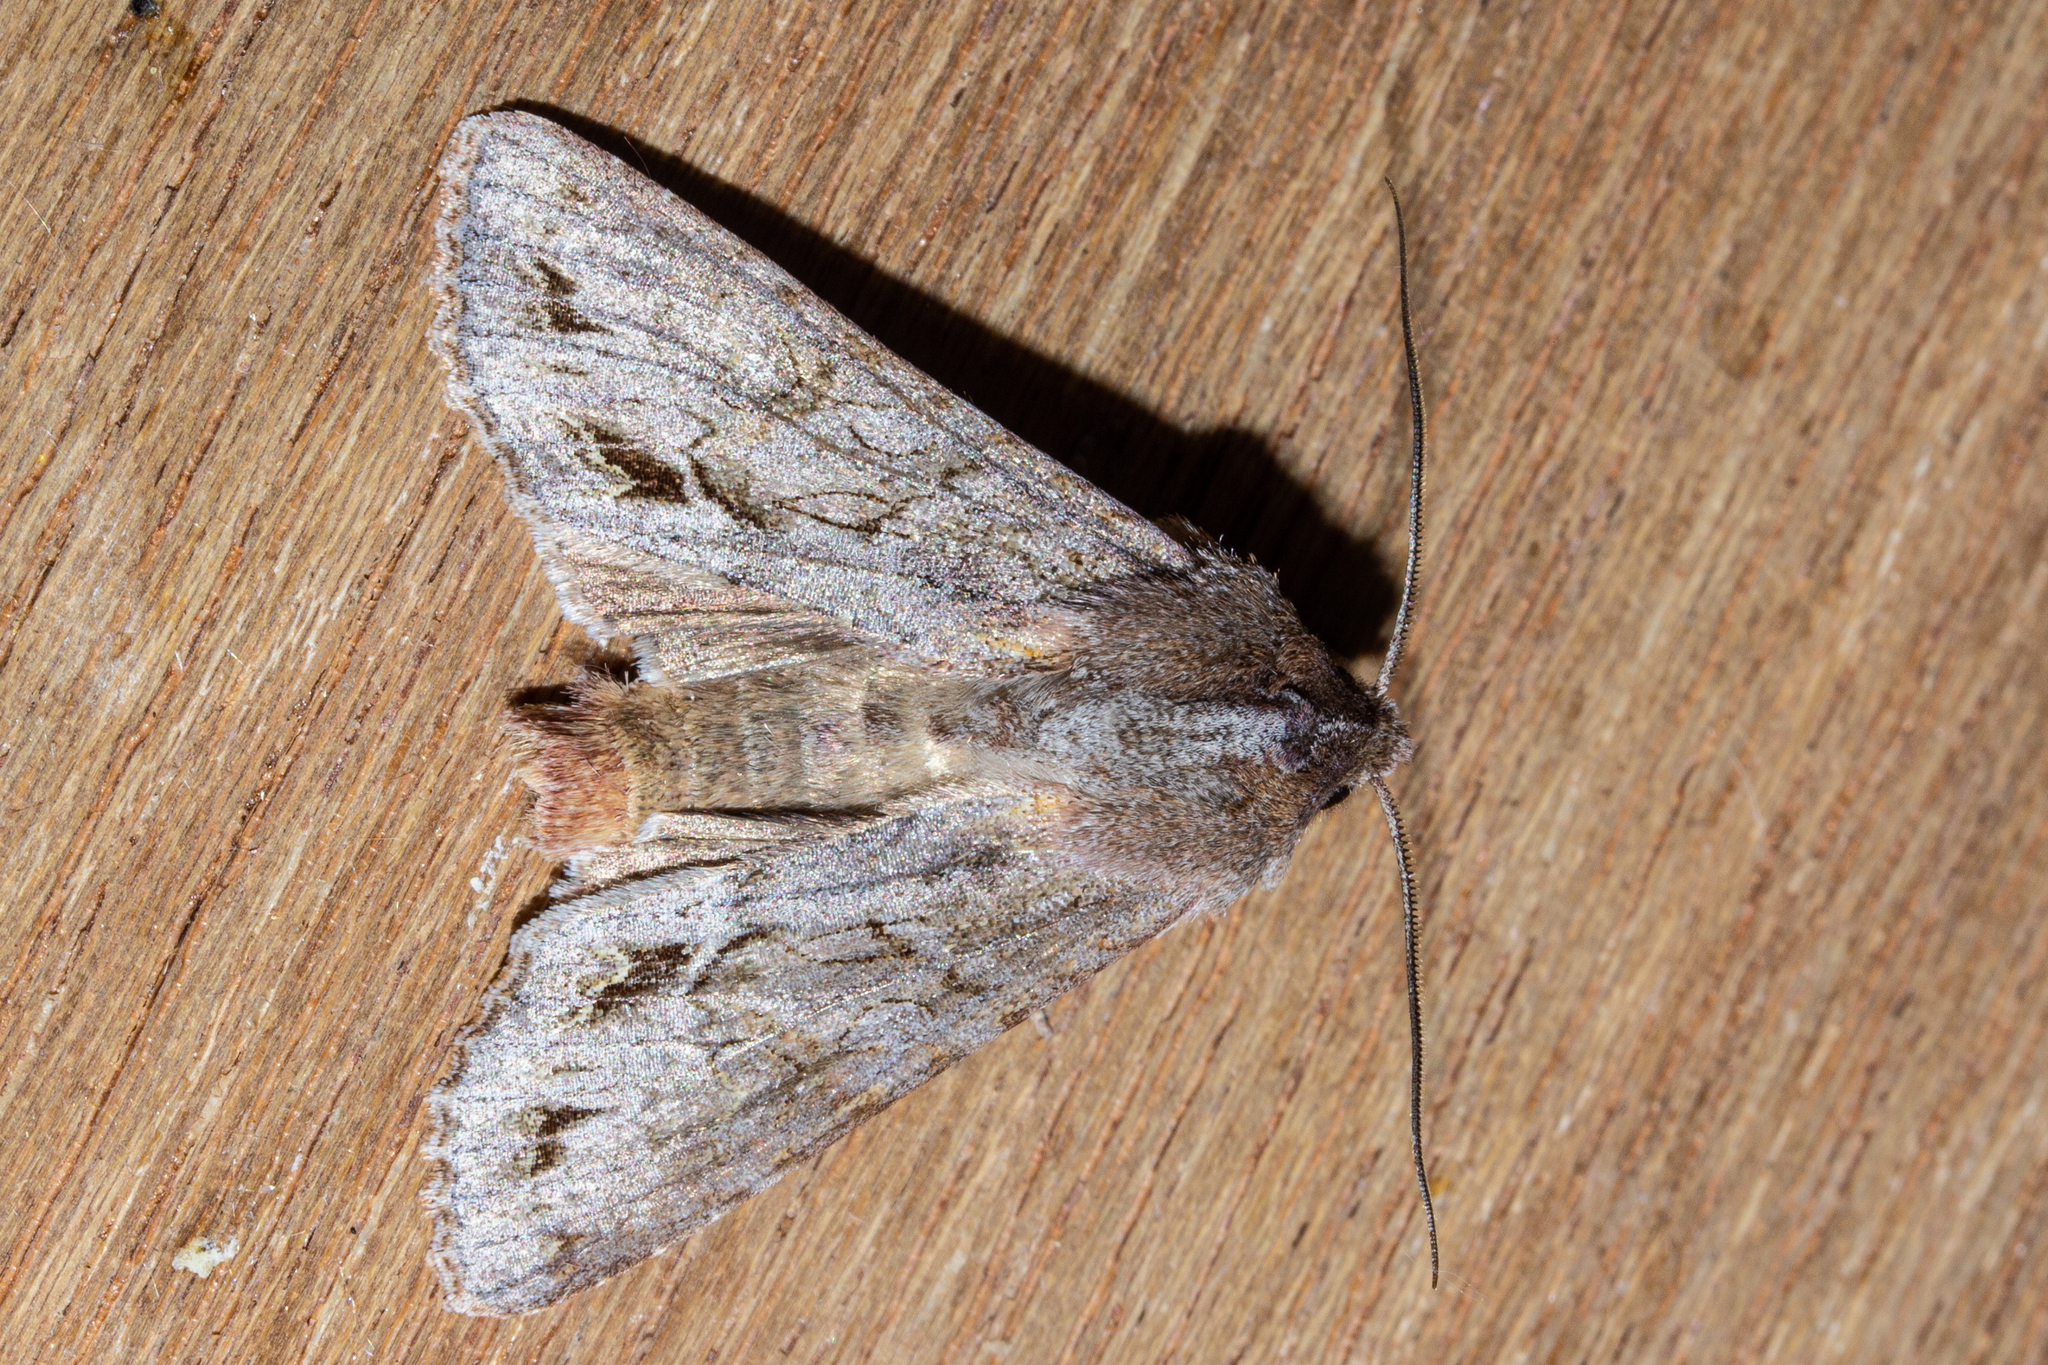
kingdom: Animalia
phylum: Arthropoda
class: Insecta
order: Lepidoptera
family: Noctuidae
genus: Ichneutica
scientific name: Ichneutica
